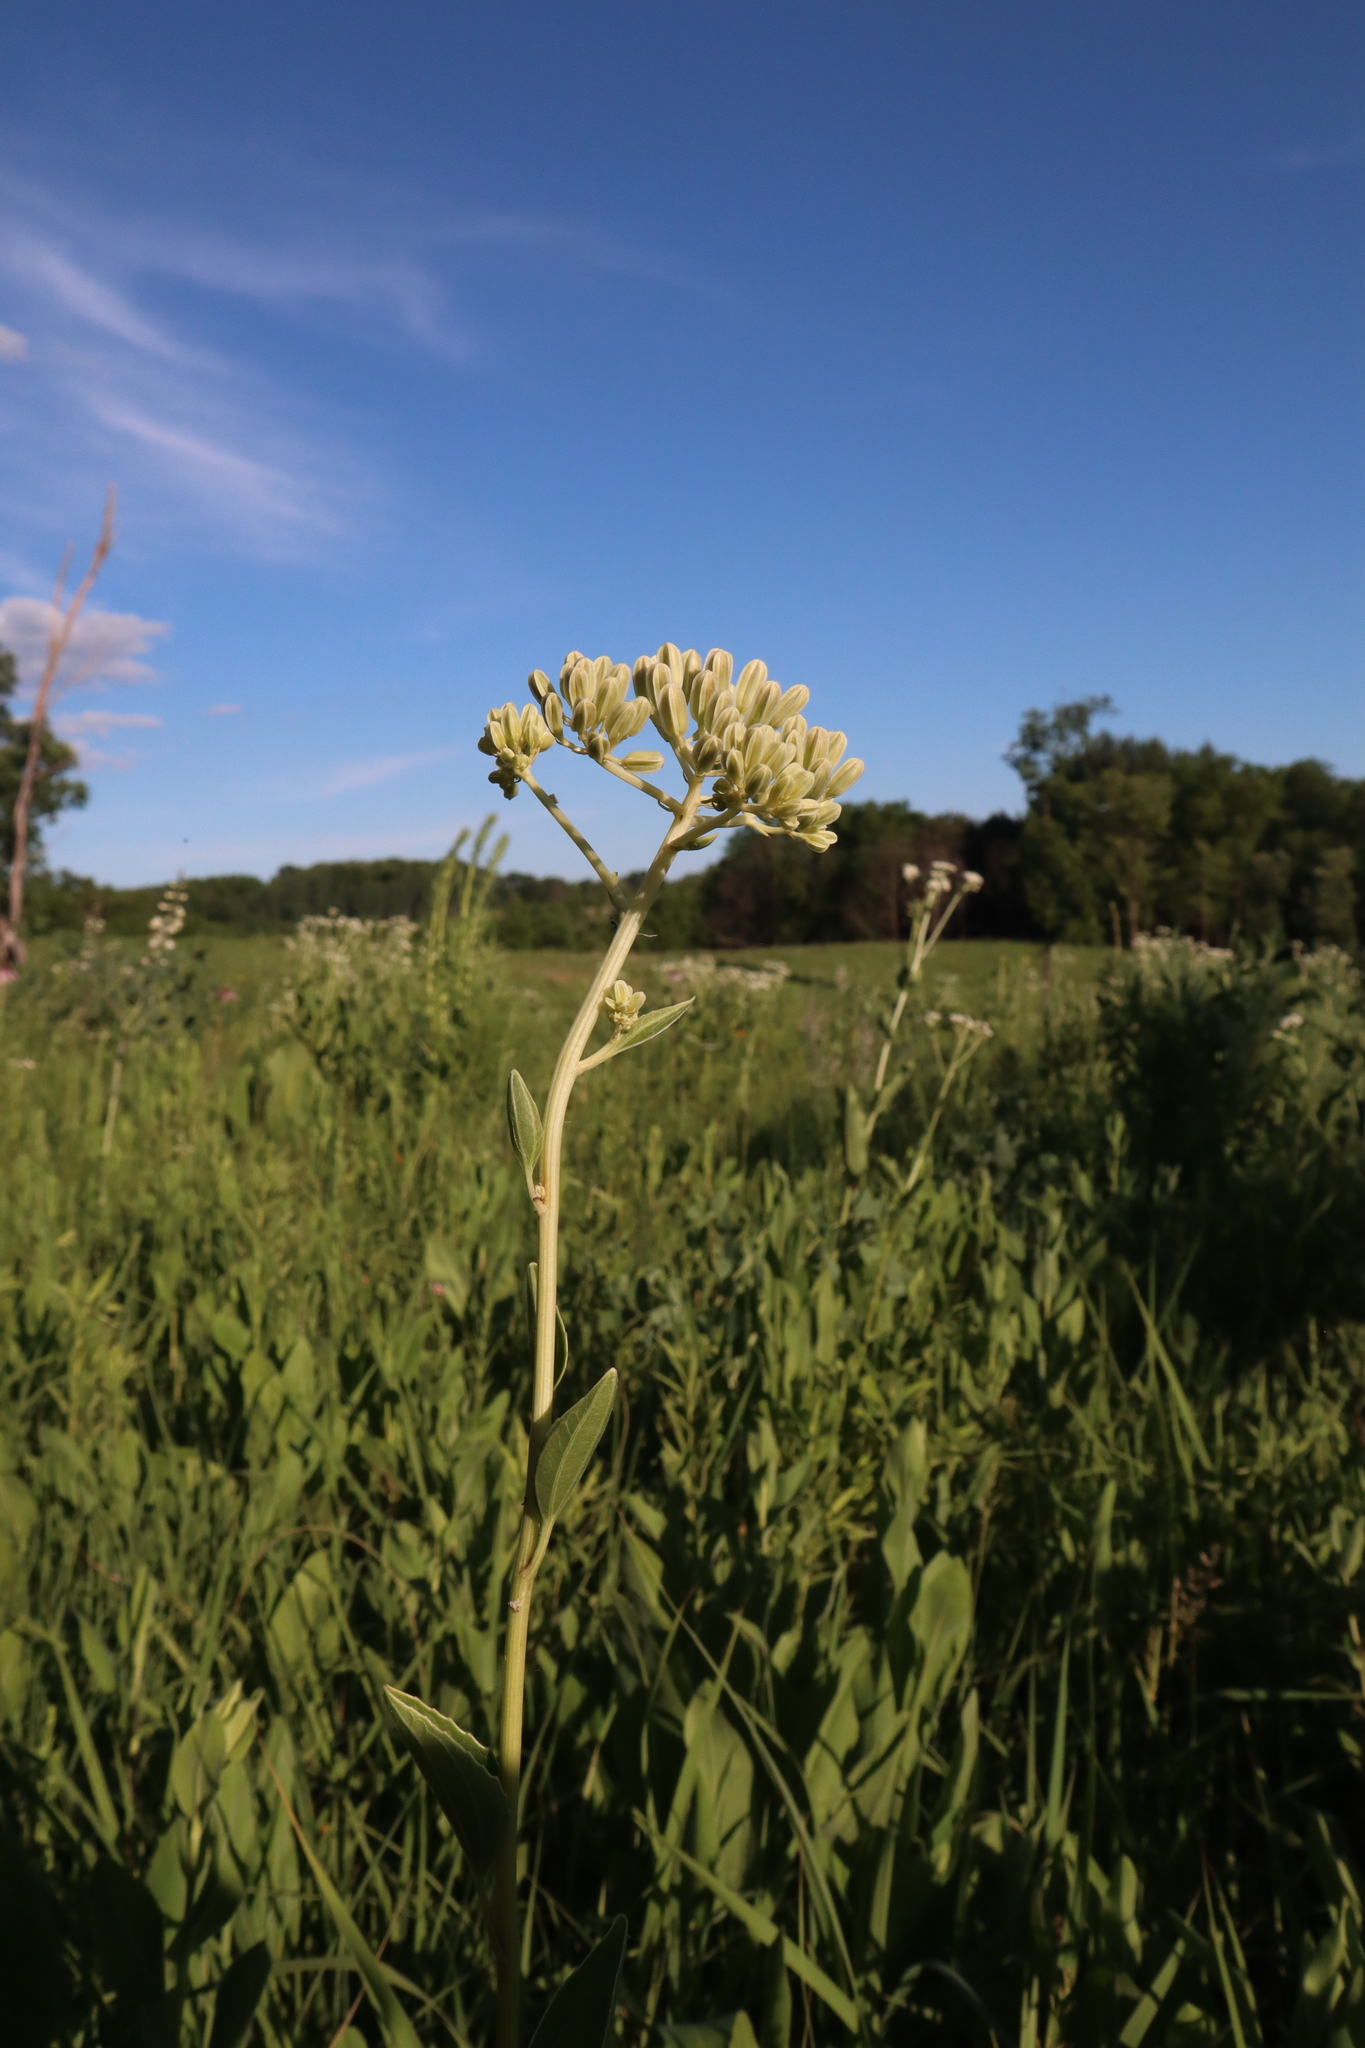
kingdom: Plantae
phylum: Tracheophyta
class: Magnoliopsida
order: Asterales
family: Asteraceae
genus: Arnoglossum
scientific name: Arnoglossum plantagineum
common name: Groove-stemmed indian-plantain
